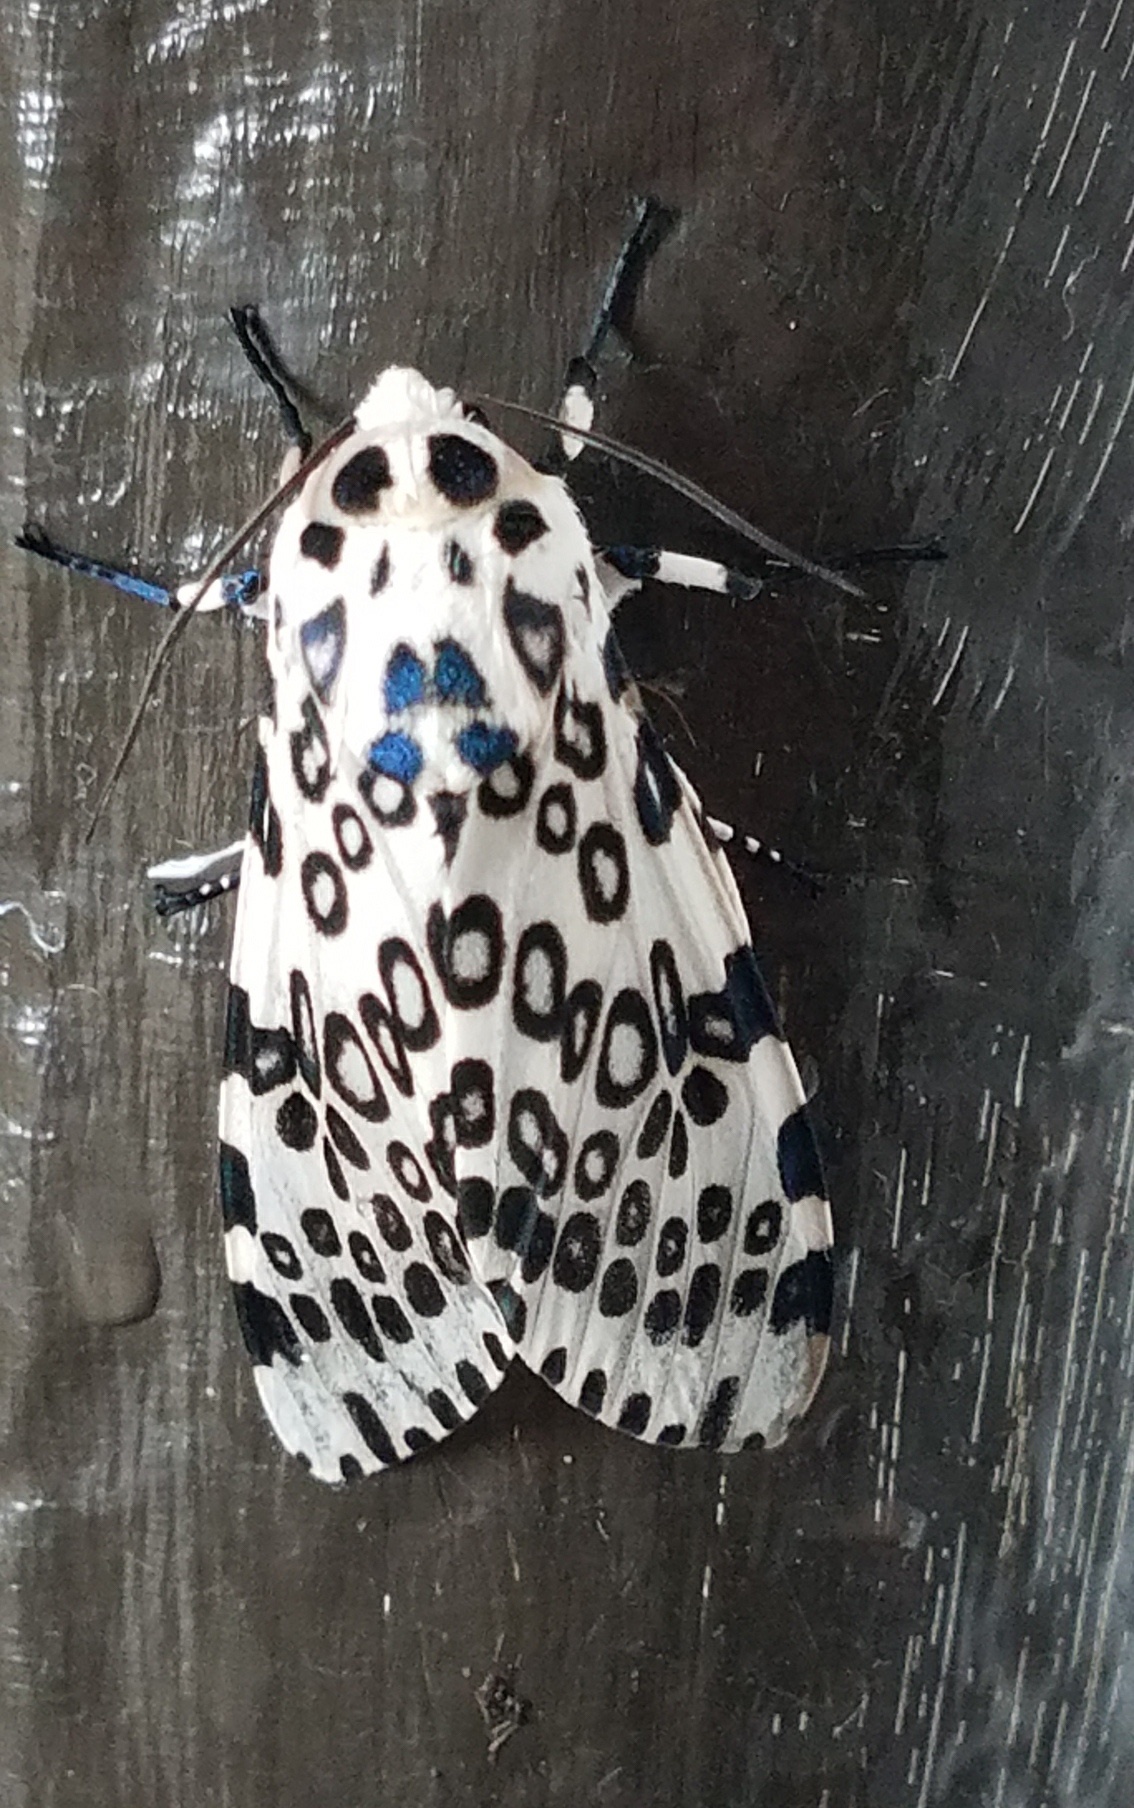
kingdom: Animalia
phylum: Arthropoda
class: Insecta
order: Lepidoptera
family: Erebidae
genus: Hypercompe
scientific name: Hypercompe scribonia
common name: Giant leopard moth
